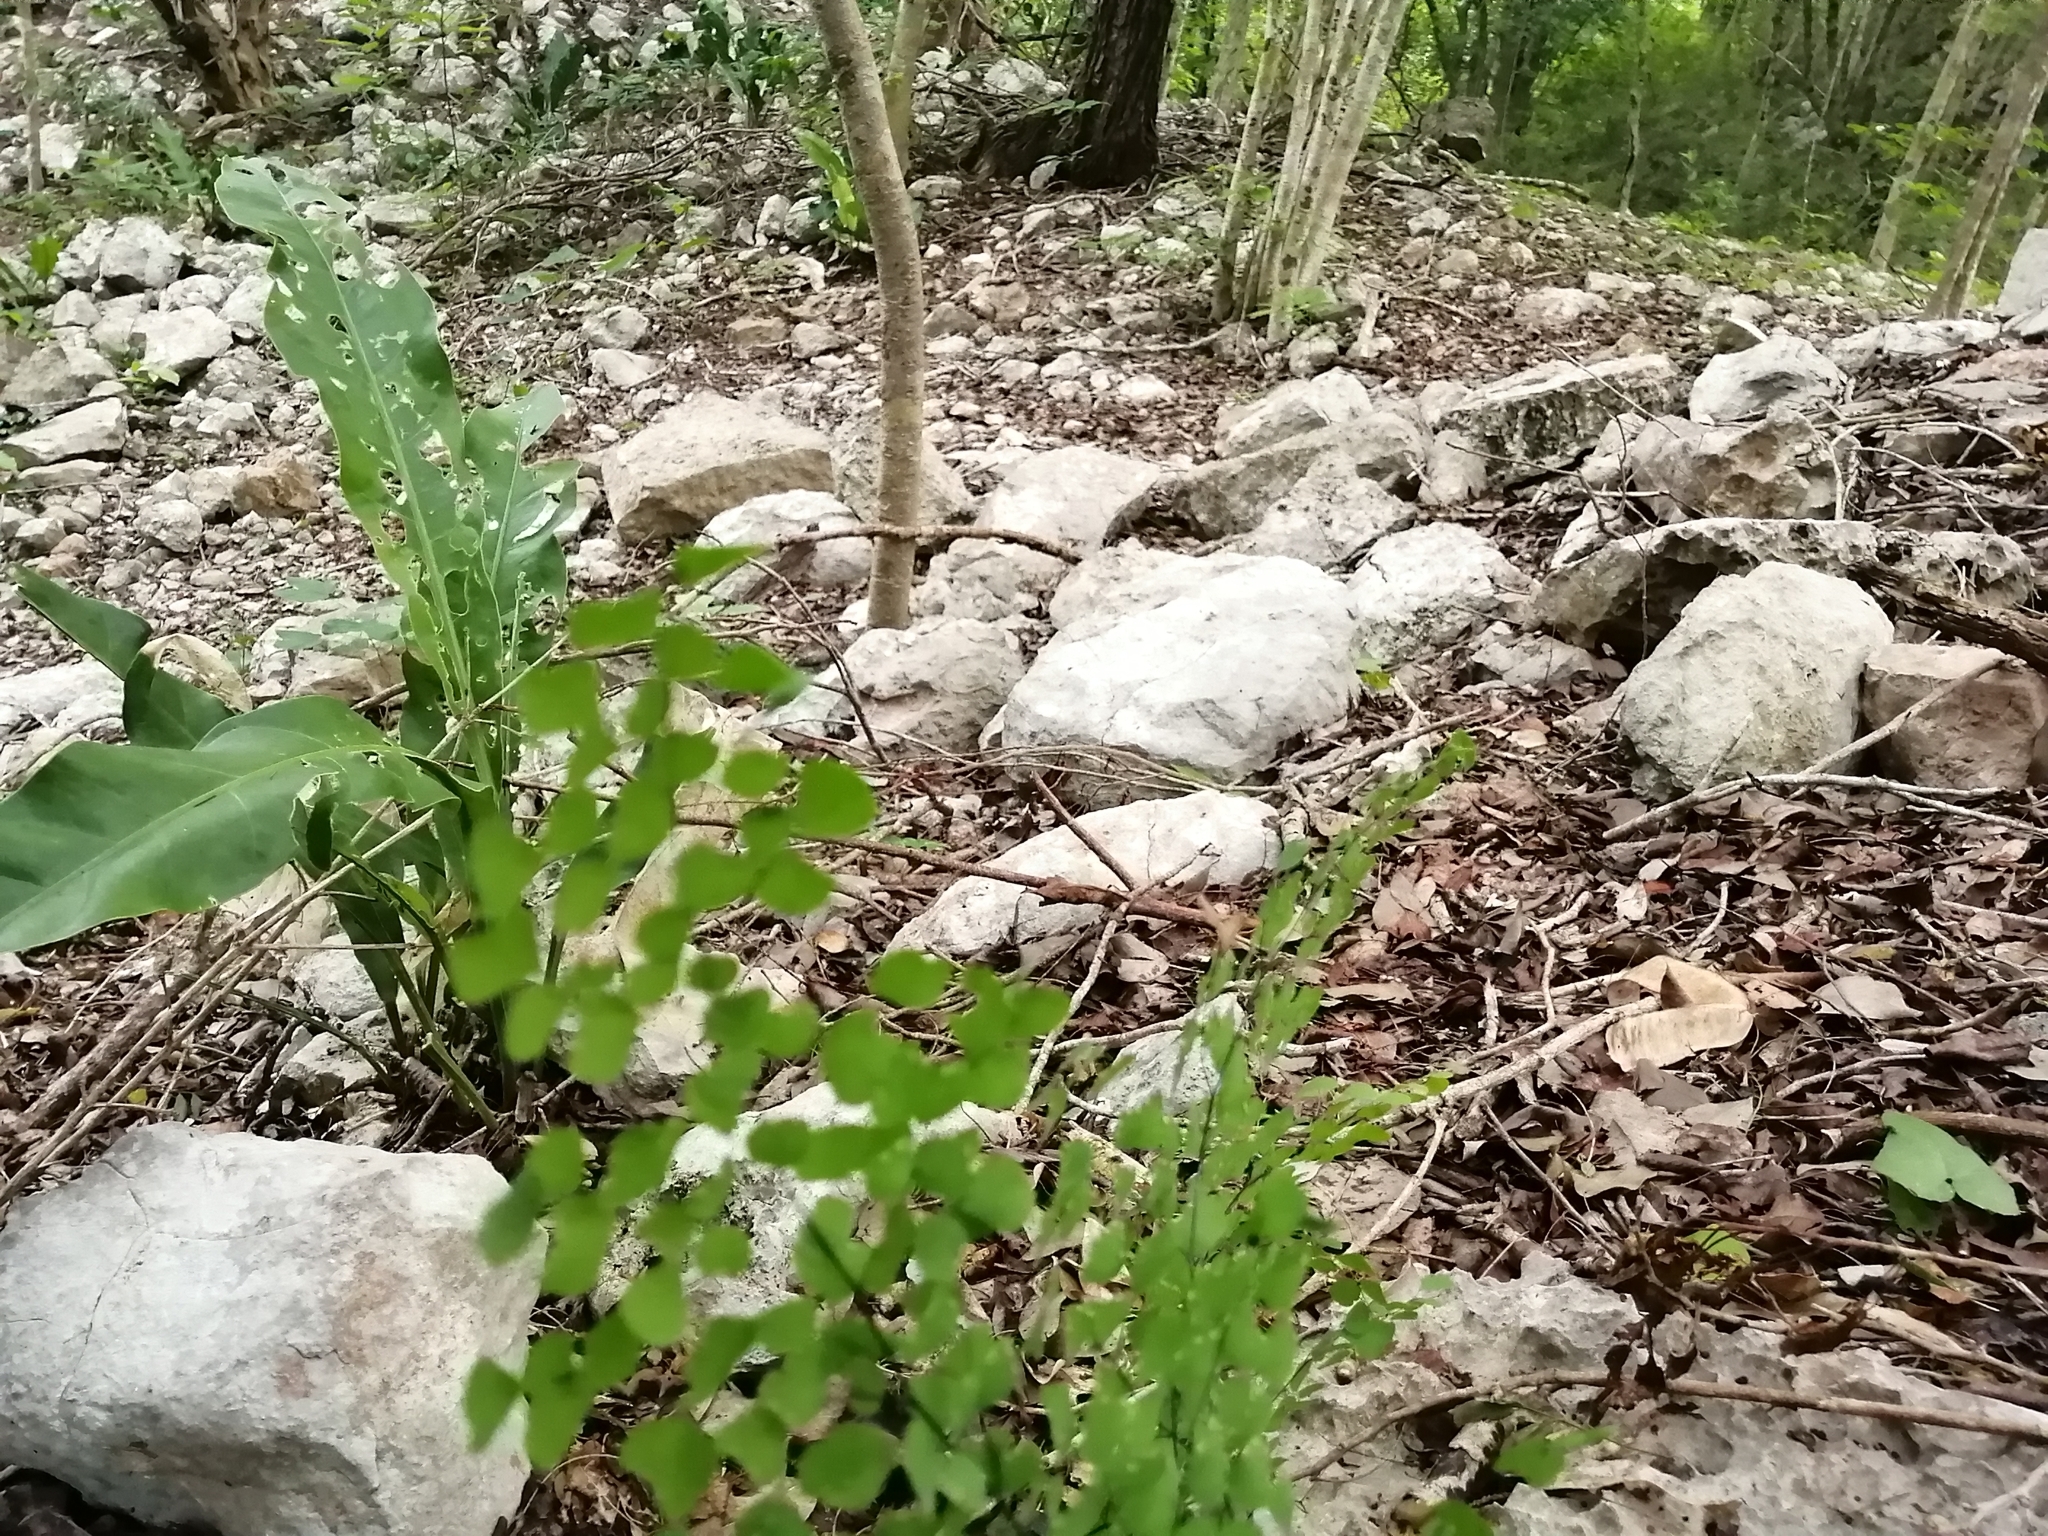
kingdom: Plantae
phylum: Tracheophyta
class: Polypodiopsida
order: Polypodiales
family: Pteridaceae
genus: Adiantum
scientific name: Adiantum tricholepis
